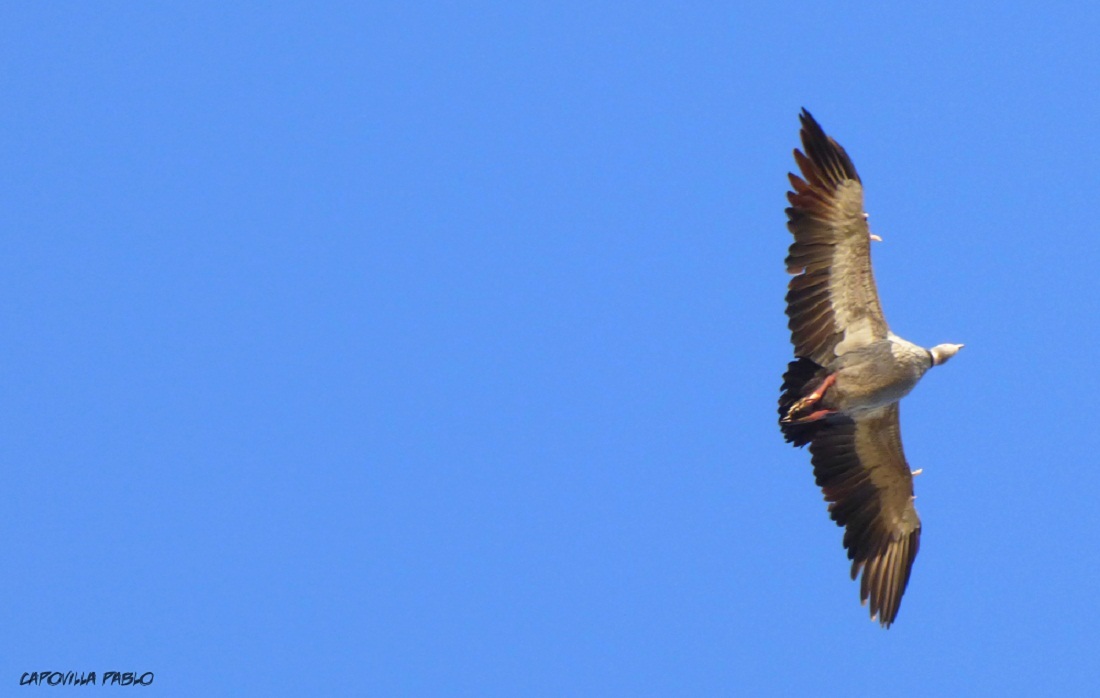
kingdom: Animalia
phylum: Chordata
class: Aves
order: Anseriformes
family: Anhimidae
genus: Chauna
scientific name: Chauna torquata
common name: Southern screamer
